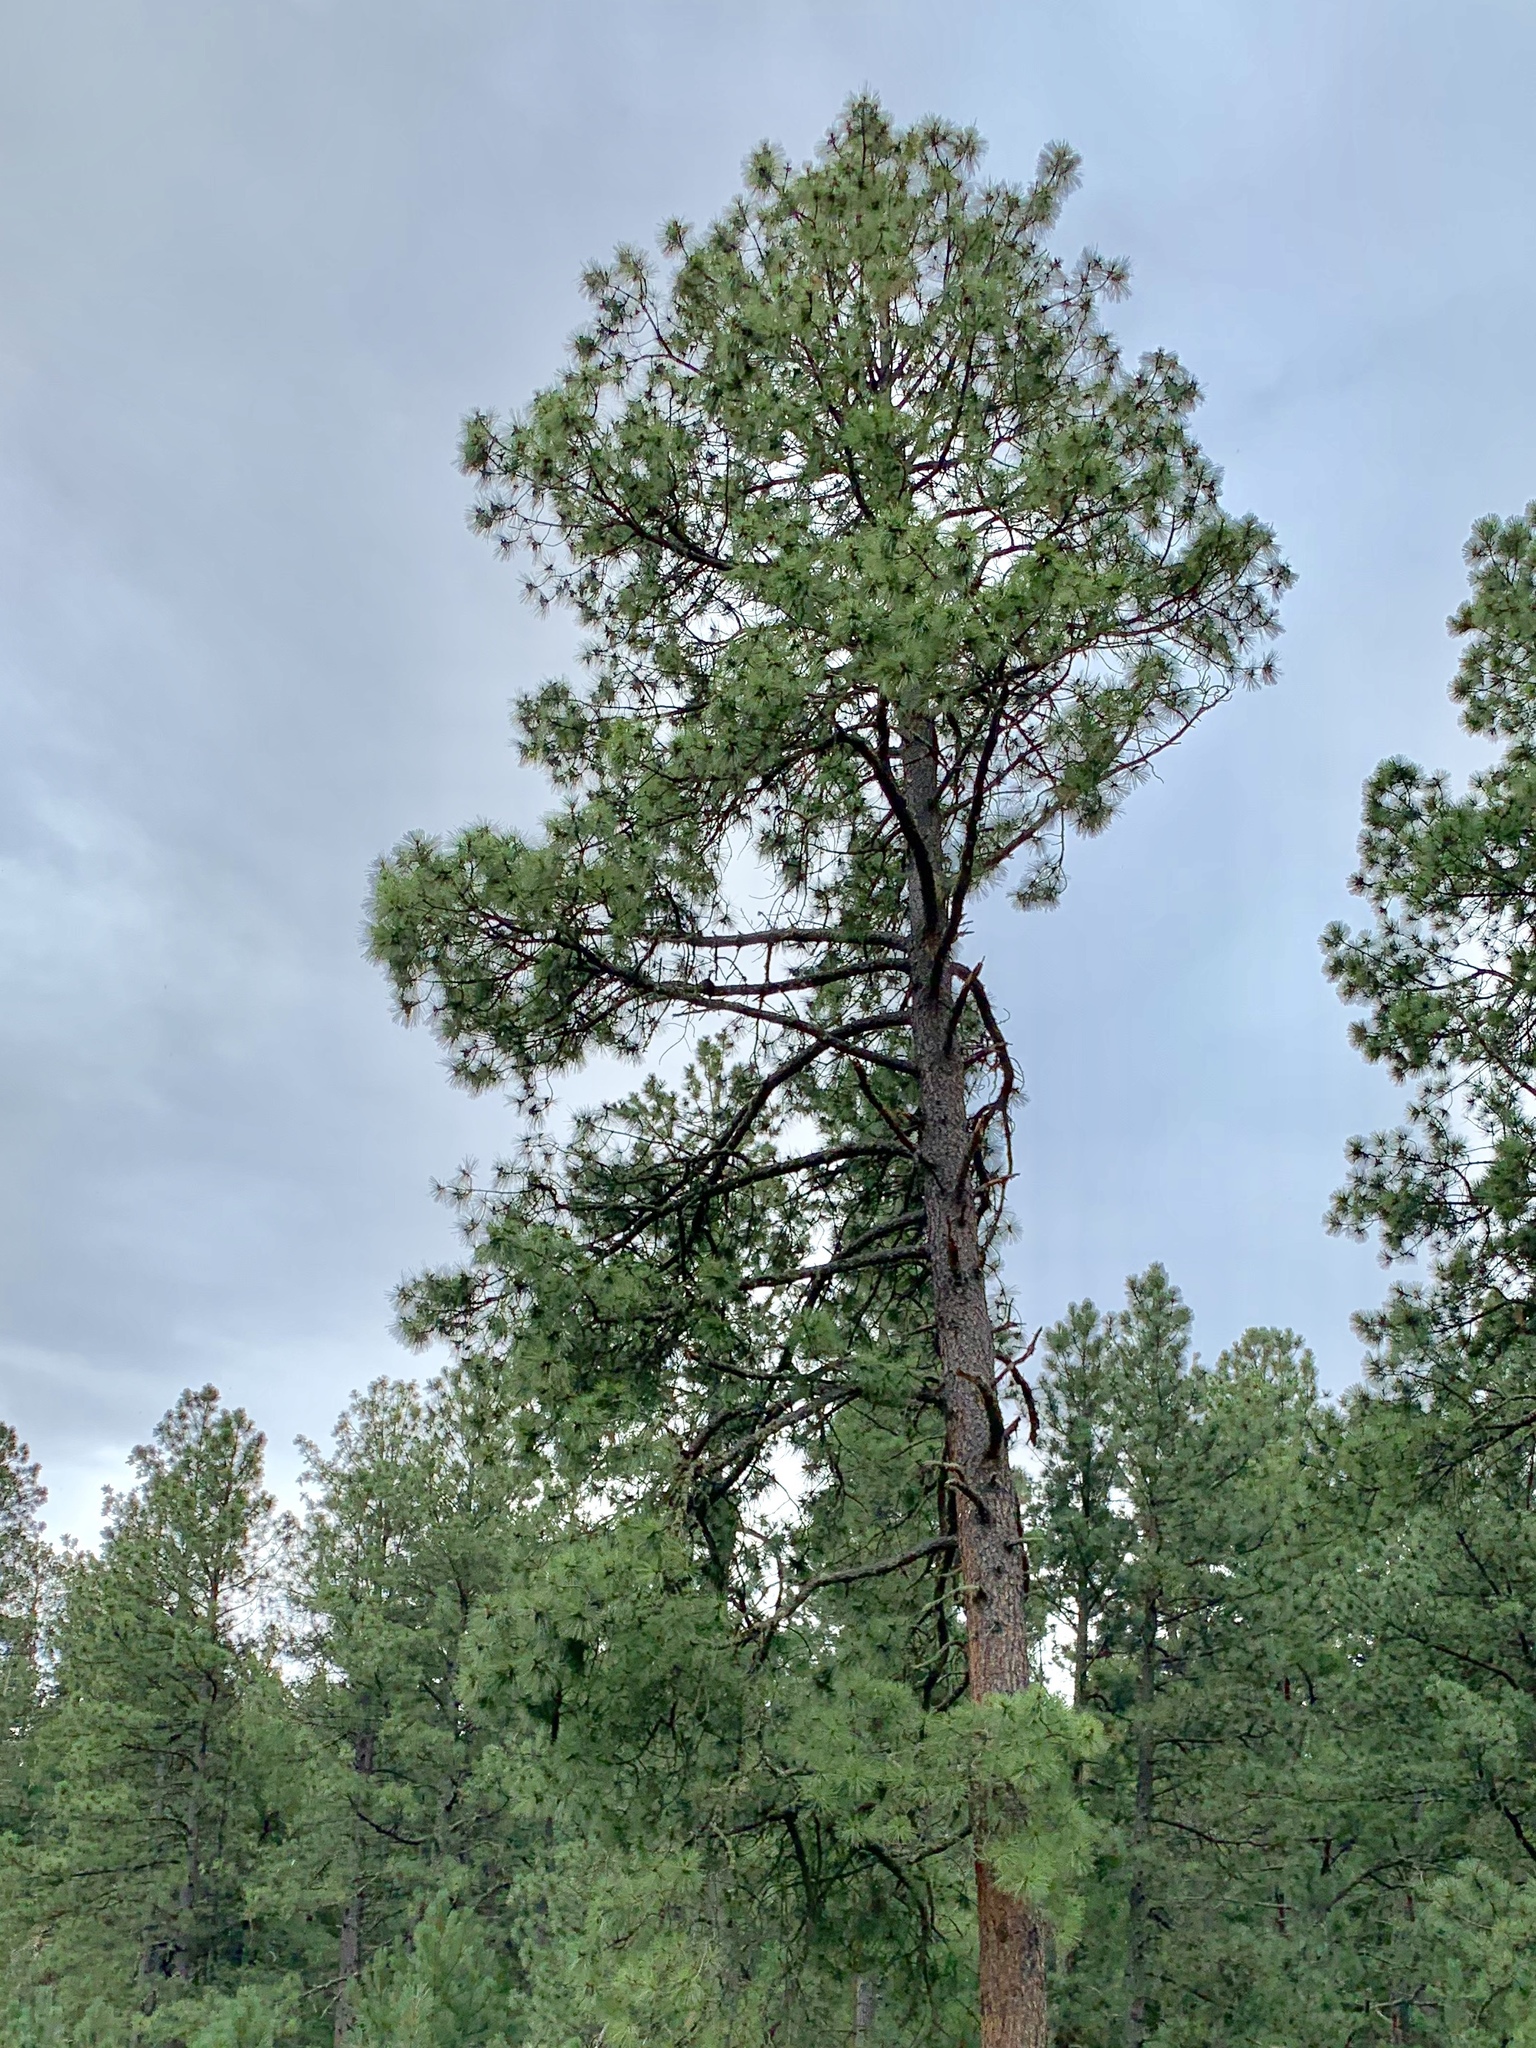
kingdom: Plantae
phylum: Tracheophyta
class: Pinopsida
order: Pinales
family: Pinaceae
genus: Pinus
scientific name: Pinus ponderosa
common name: Western yellow-pine
